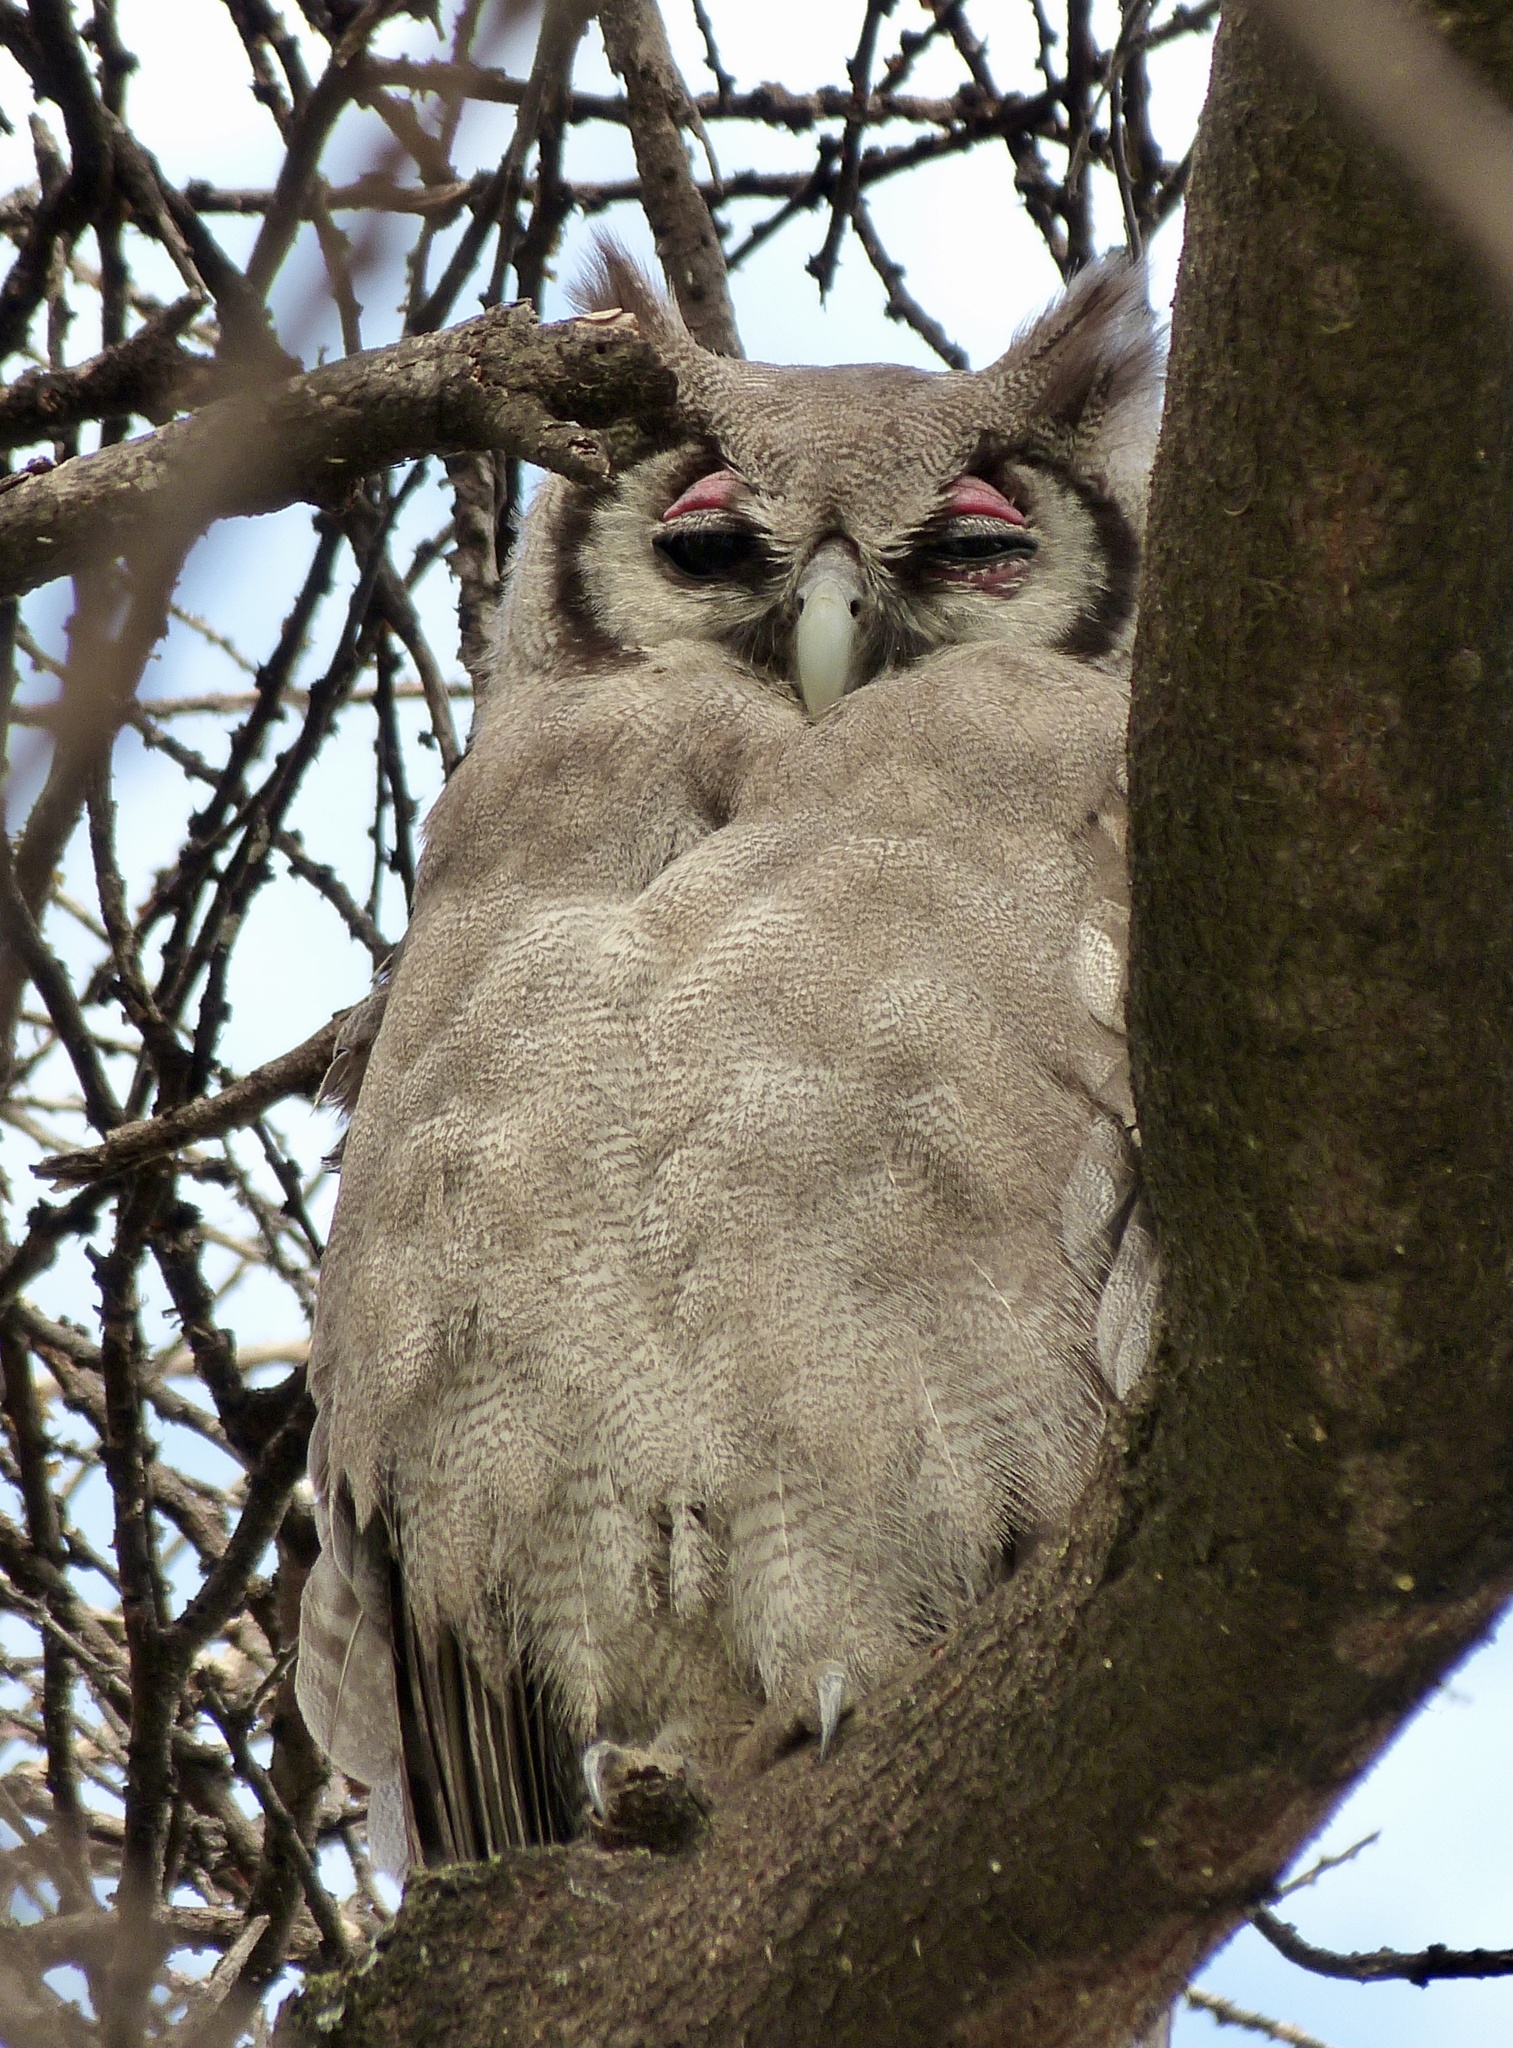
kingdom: Animalia
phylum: Chordata
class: Aves
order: Strigiformes
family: Strigidae
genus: Bubo
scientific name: Bubo lacteus
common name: Verreaux's eagle-owl
